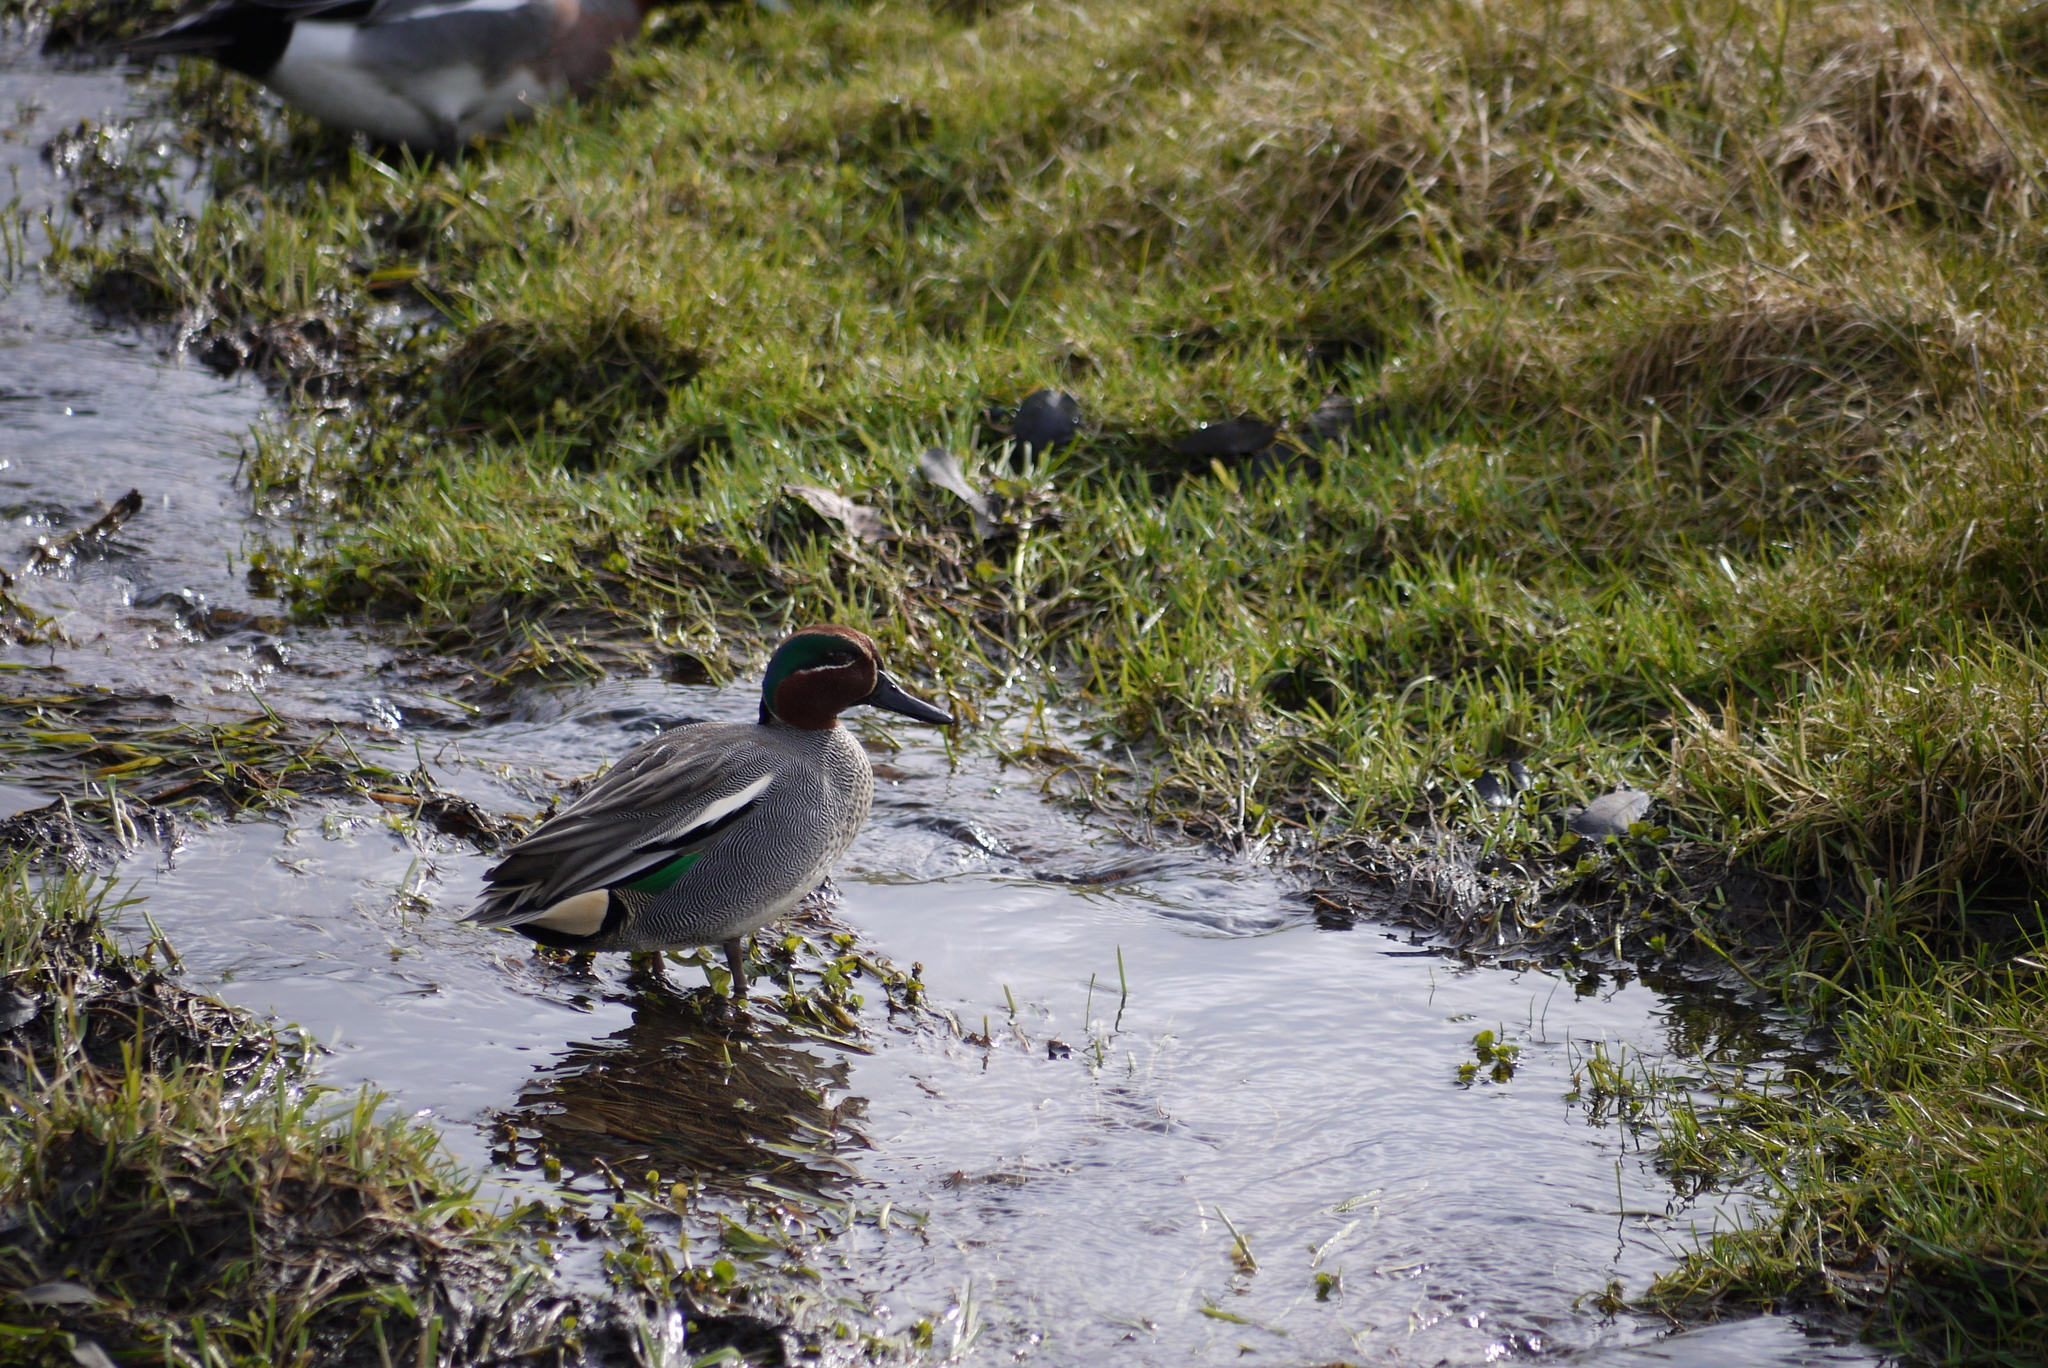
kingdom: Animalia
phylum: Chordata
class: Aves
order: Anseriformes
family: Anatidae
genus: Anas
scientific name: Anas crecca
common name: Eurasian teal
